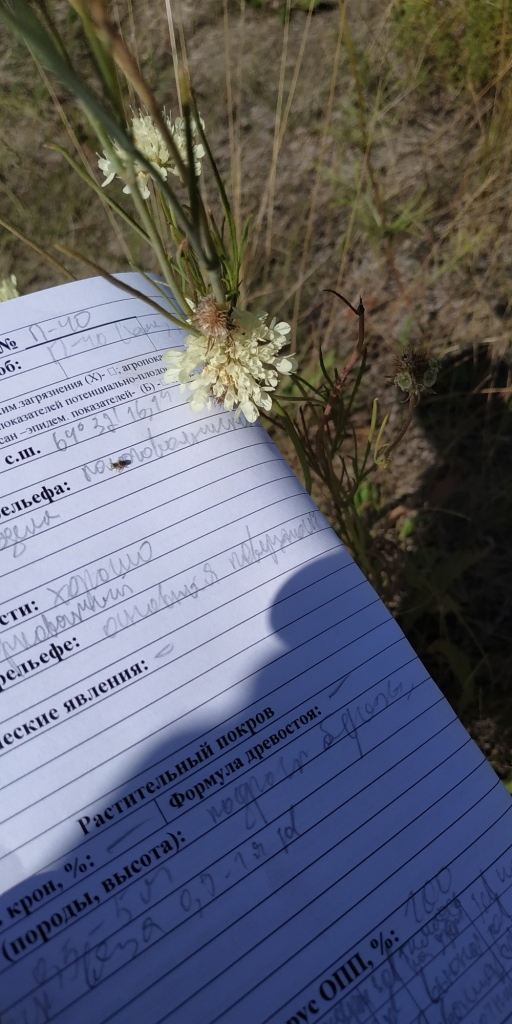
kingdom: Plantae
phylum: Tracheophyta
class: Magnoliopsida
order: Dipsacales
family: Caprifoliaceae
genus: Scabiosa
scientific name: Scabiosa ochroleuca
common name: Cream pincushions
